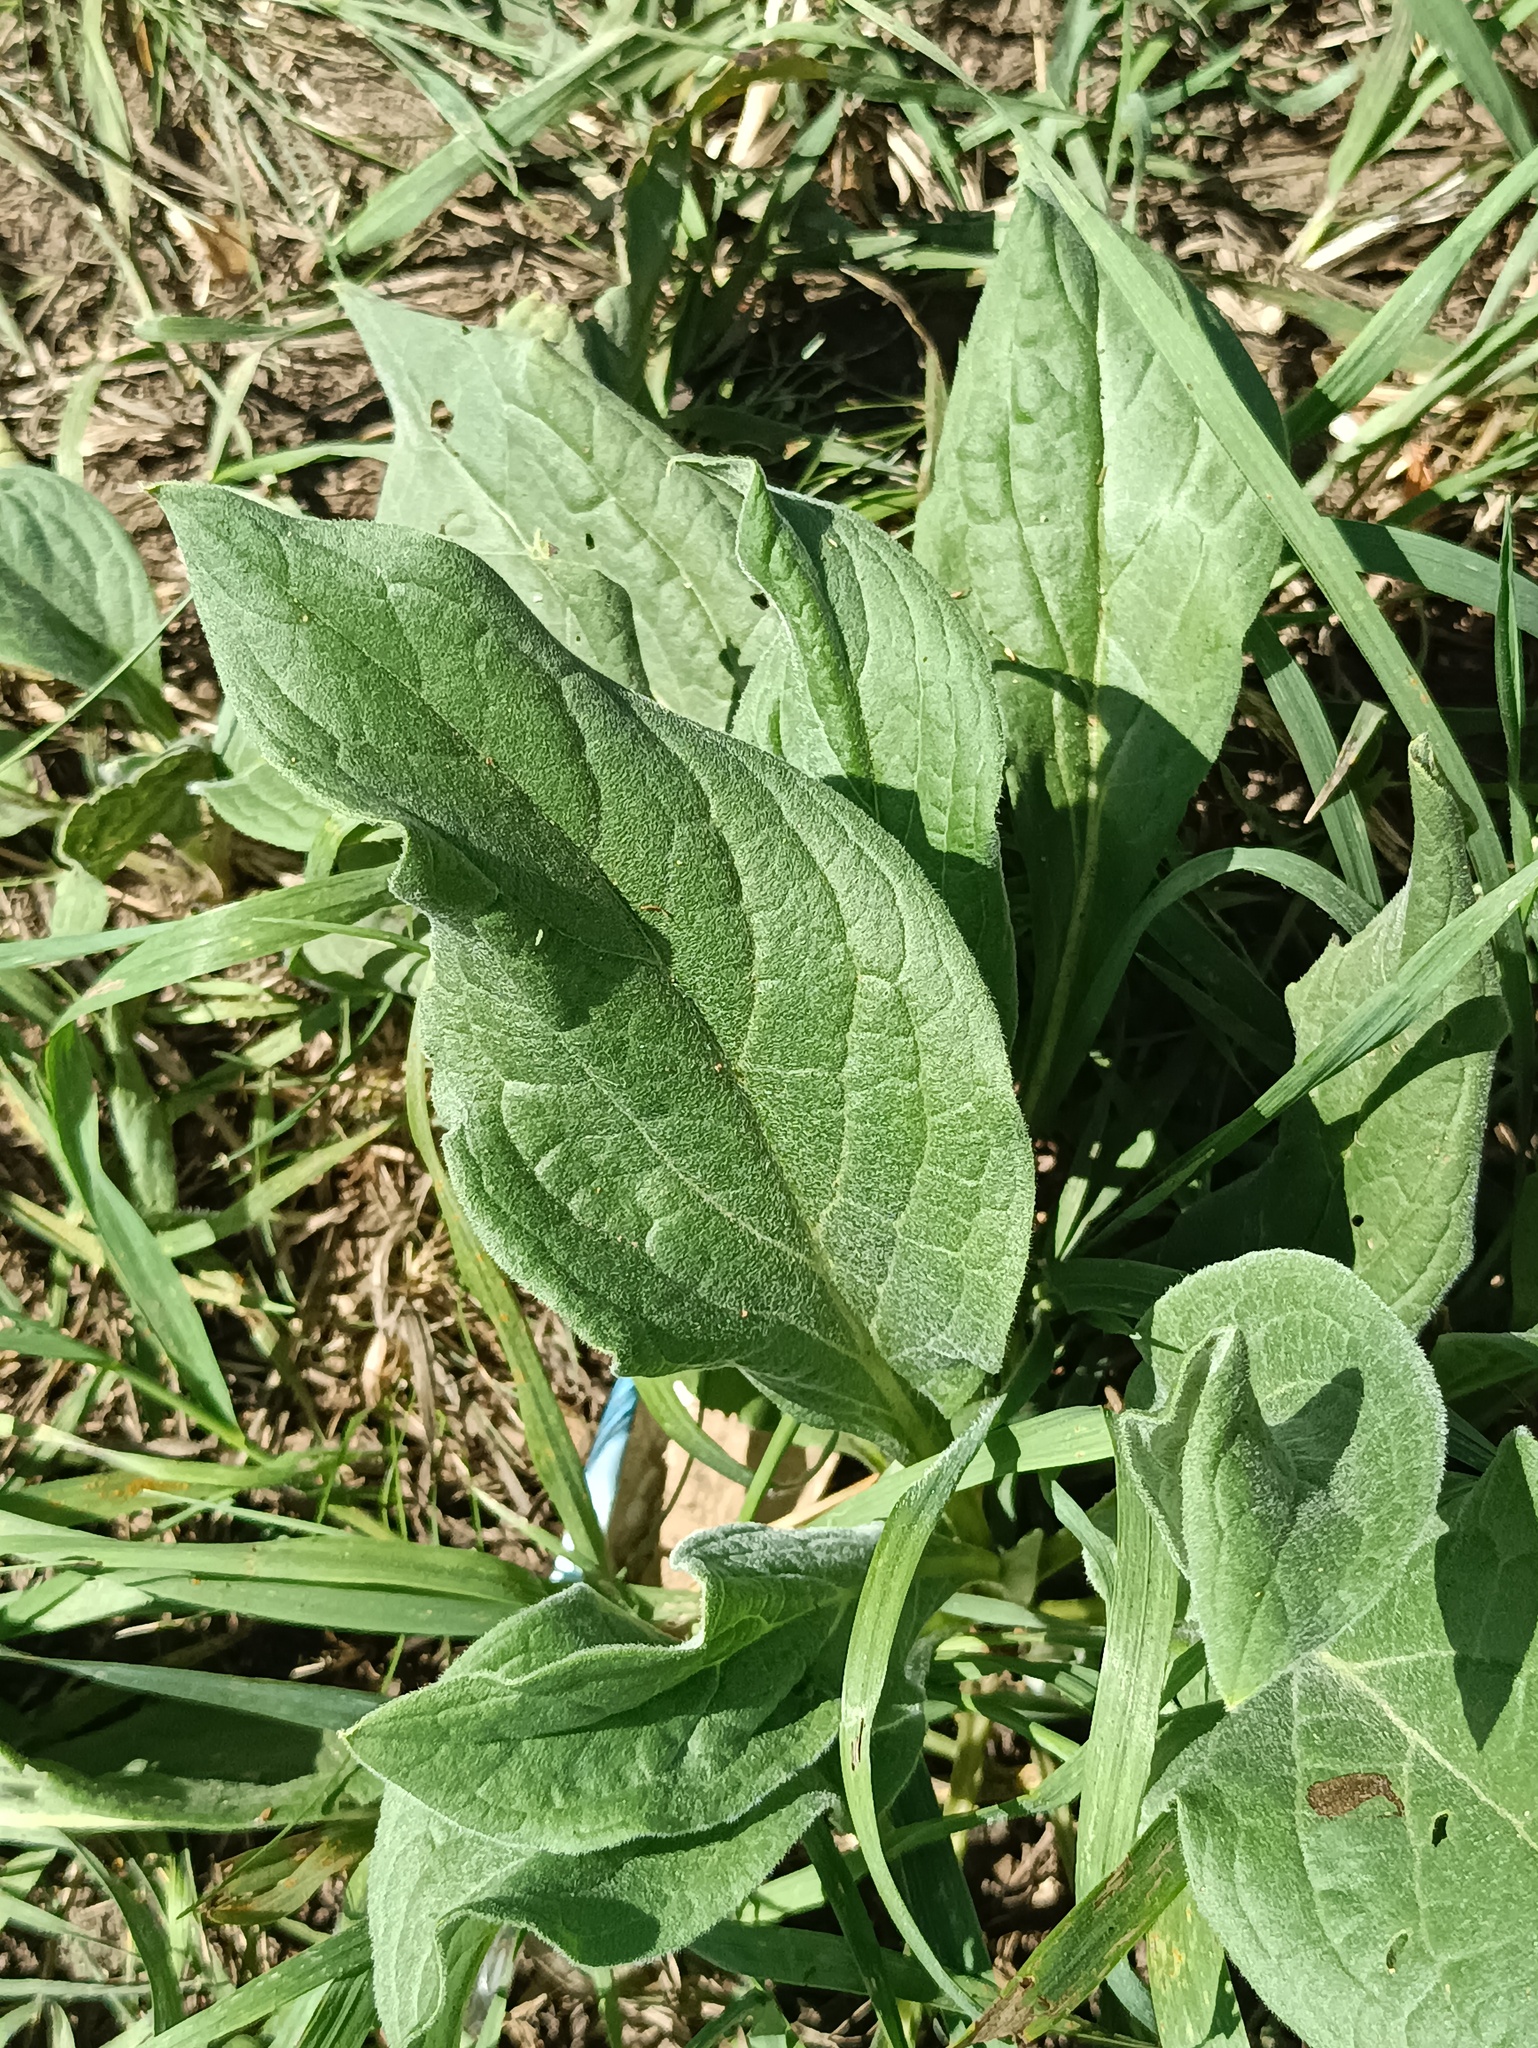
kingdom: Plantae
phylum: Tracheophyta
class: Magnoliopsida
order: Boraginales
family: Boraginaceae
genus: Cynoglossum
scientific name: Cynoglossum officinale
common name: Hound's-tongue
